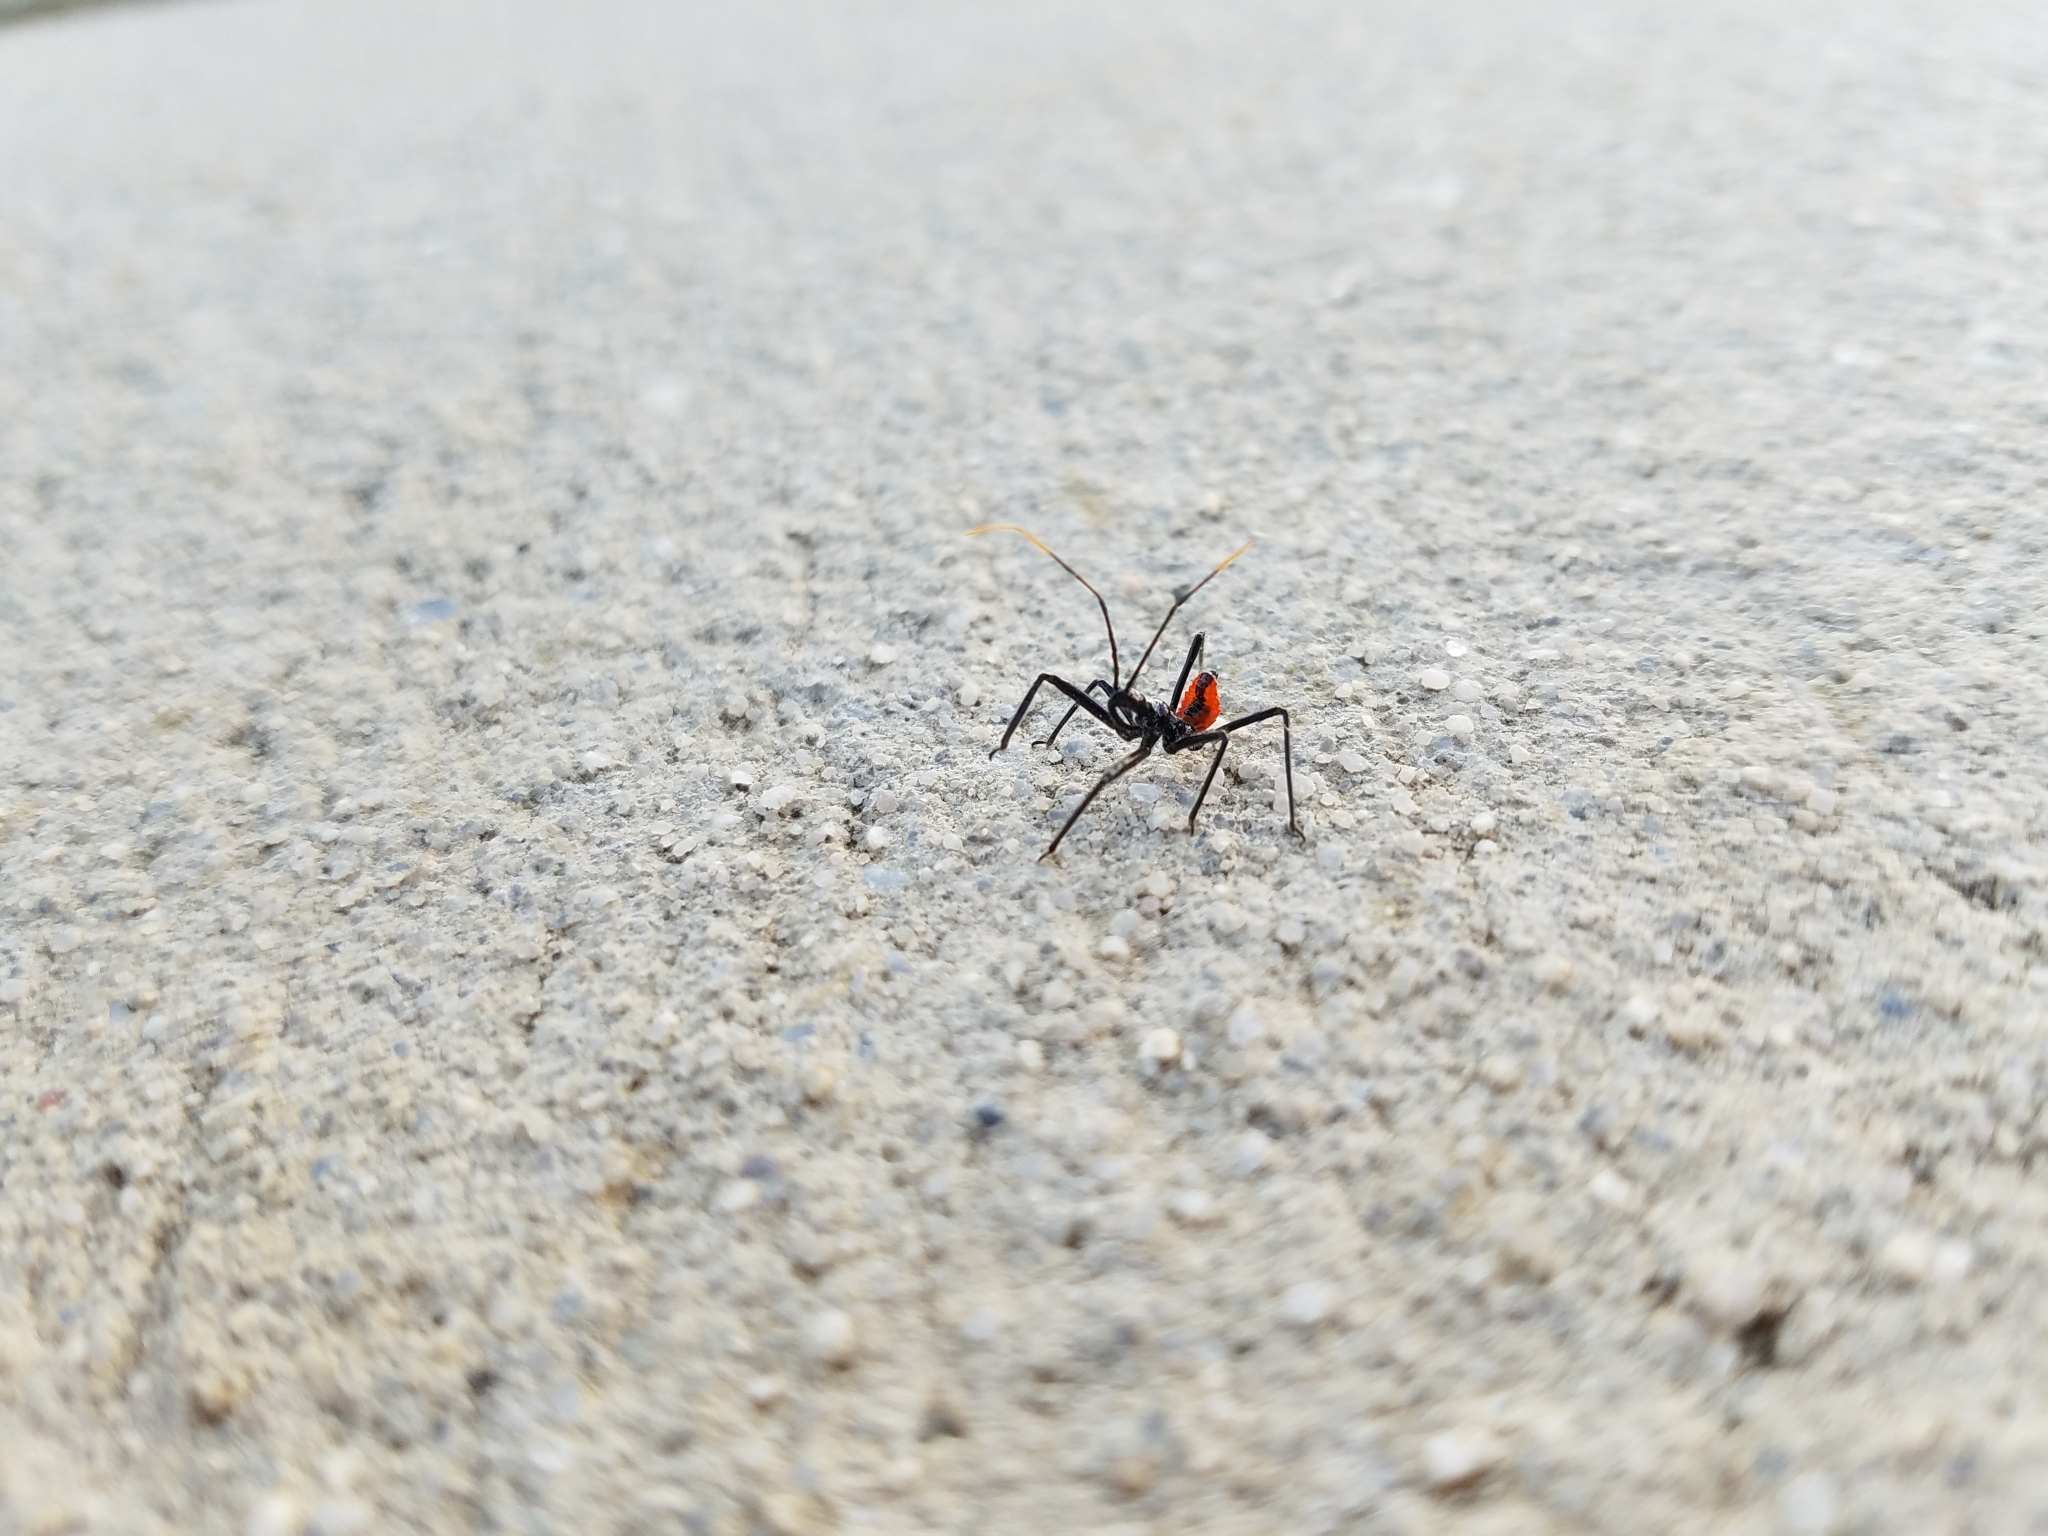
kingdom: Animalia
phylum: Arthropoda
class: Insecta
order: Hemiptera
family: Reduviidae
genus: Arilus
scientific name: Arilus cristatus
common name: North american wheel bug
